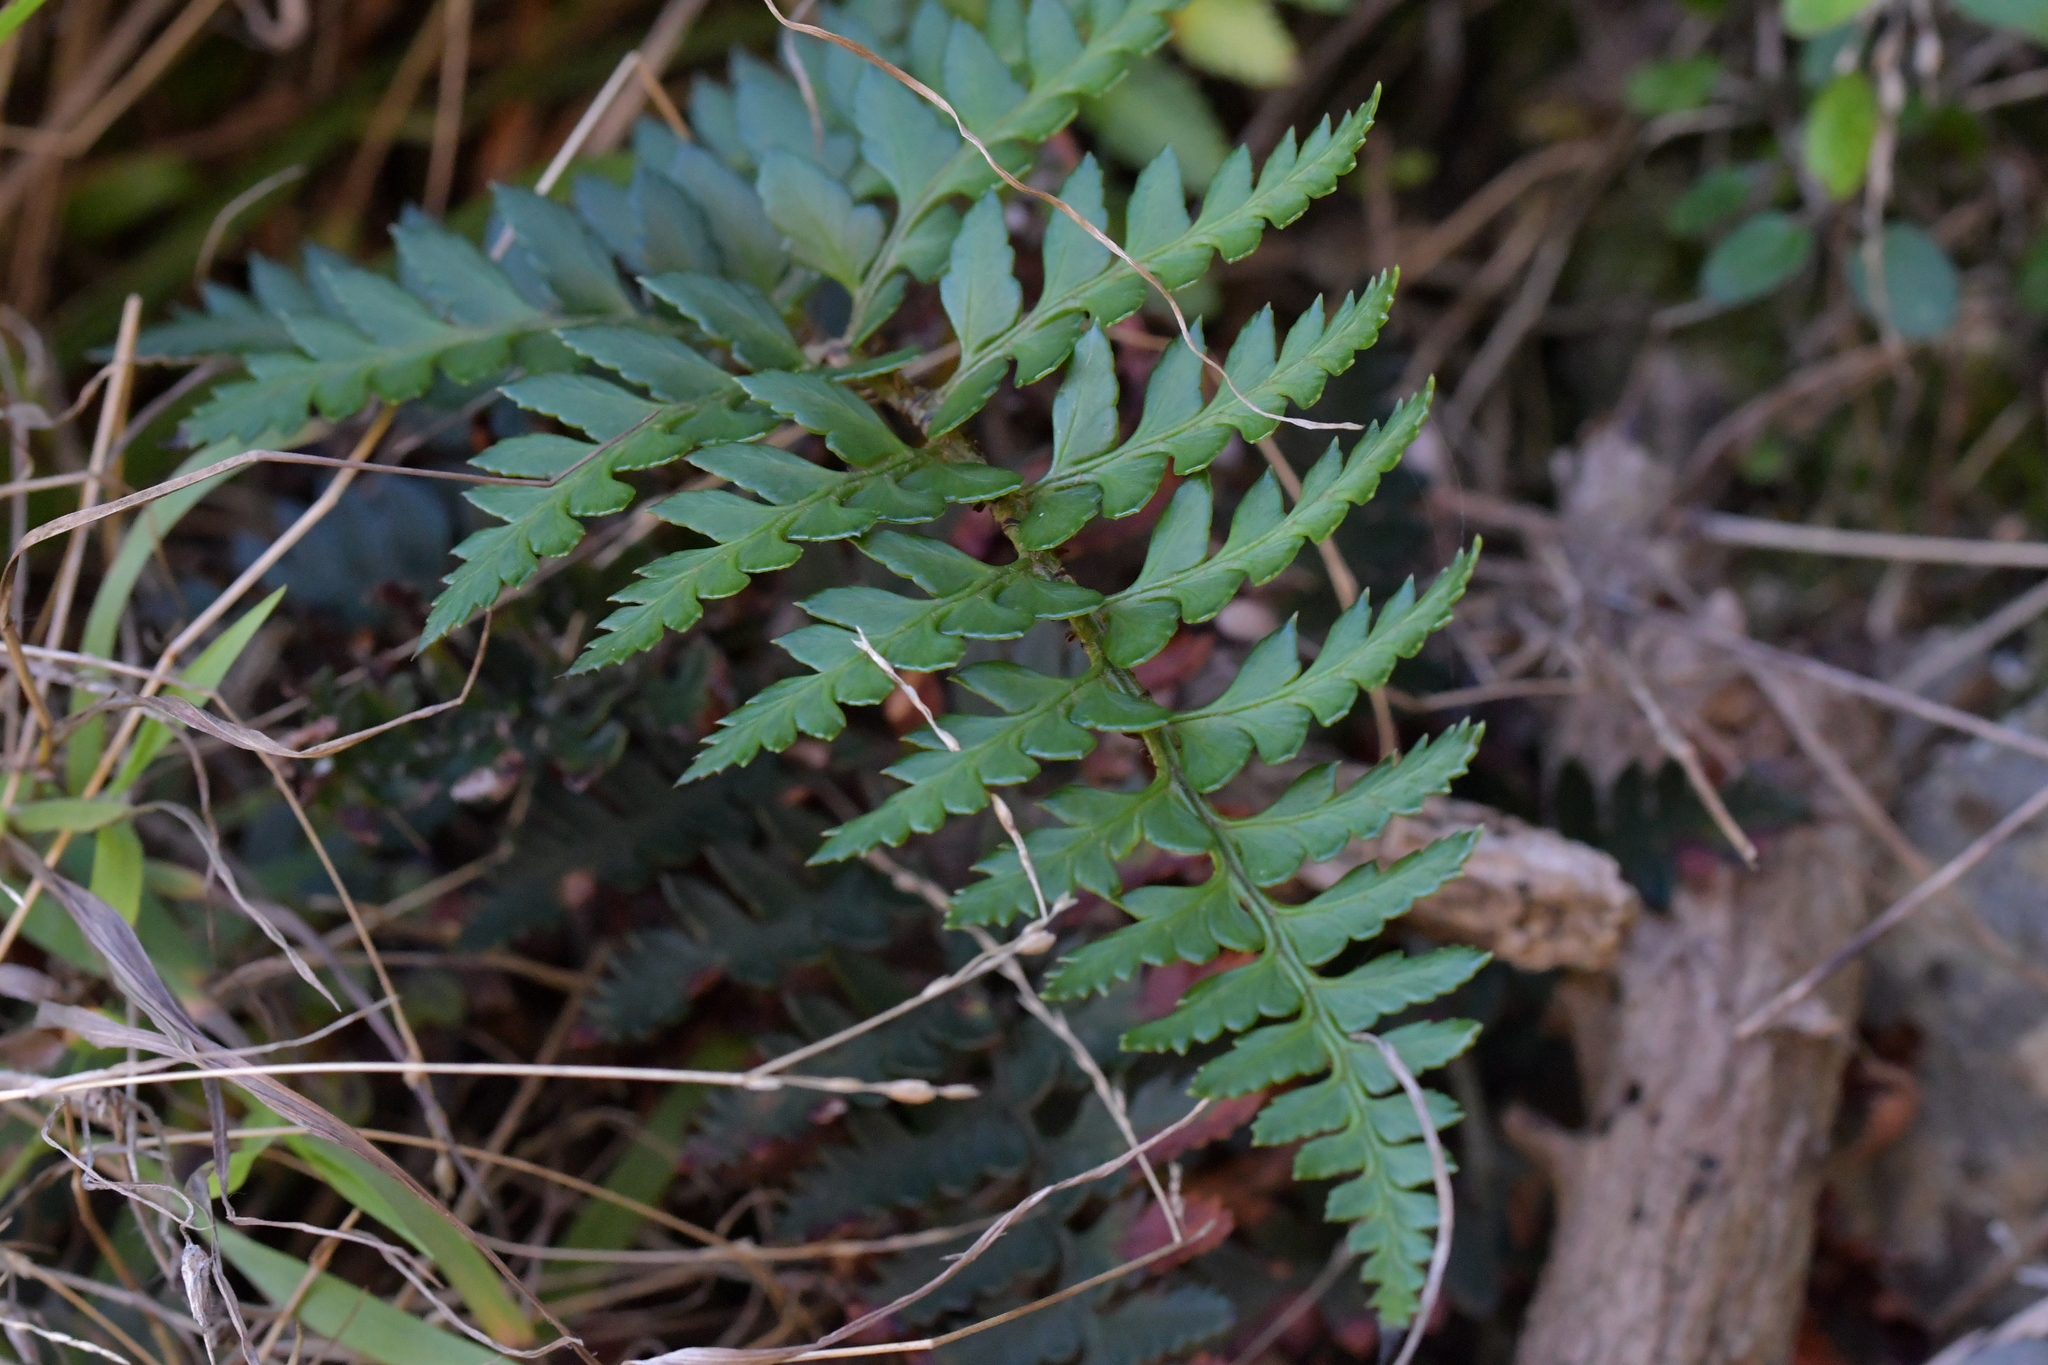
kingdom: Plantae
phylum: Tracheophyta
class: Polypodiopsida
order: Polypodiales
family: Dryopteridaceae
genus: Polystichum
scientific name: Polystichum oculatum
